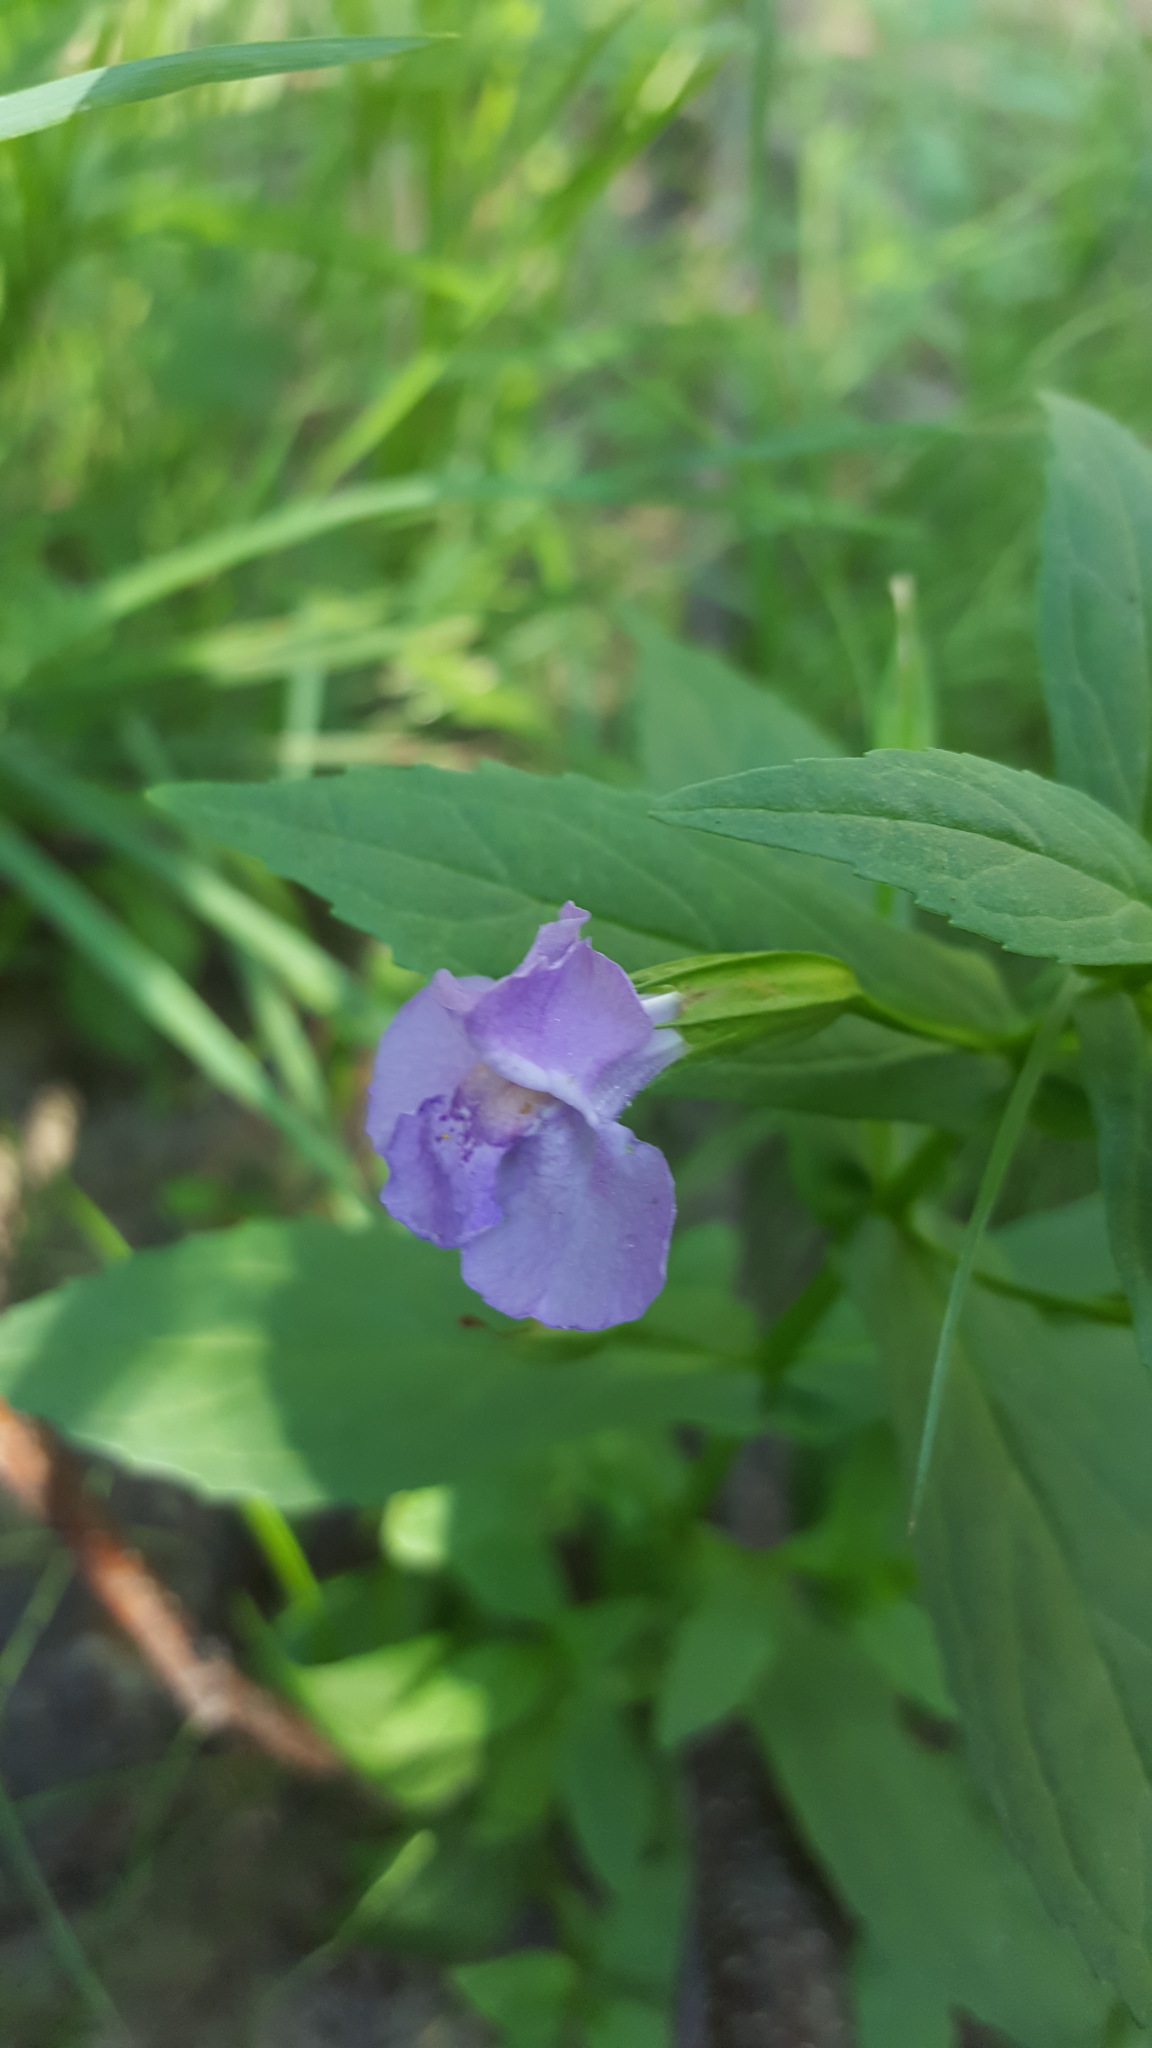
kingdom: Plantae
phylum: Tracheophyta
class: Magnoliopsida
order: Lamiales
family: Phrymaceae
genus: Mimulus
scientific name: Mimulus ringens
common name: Allegheny monkeyflower
